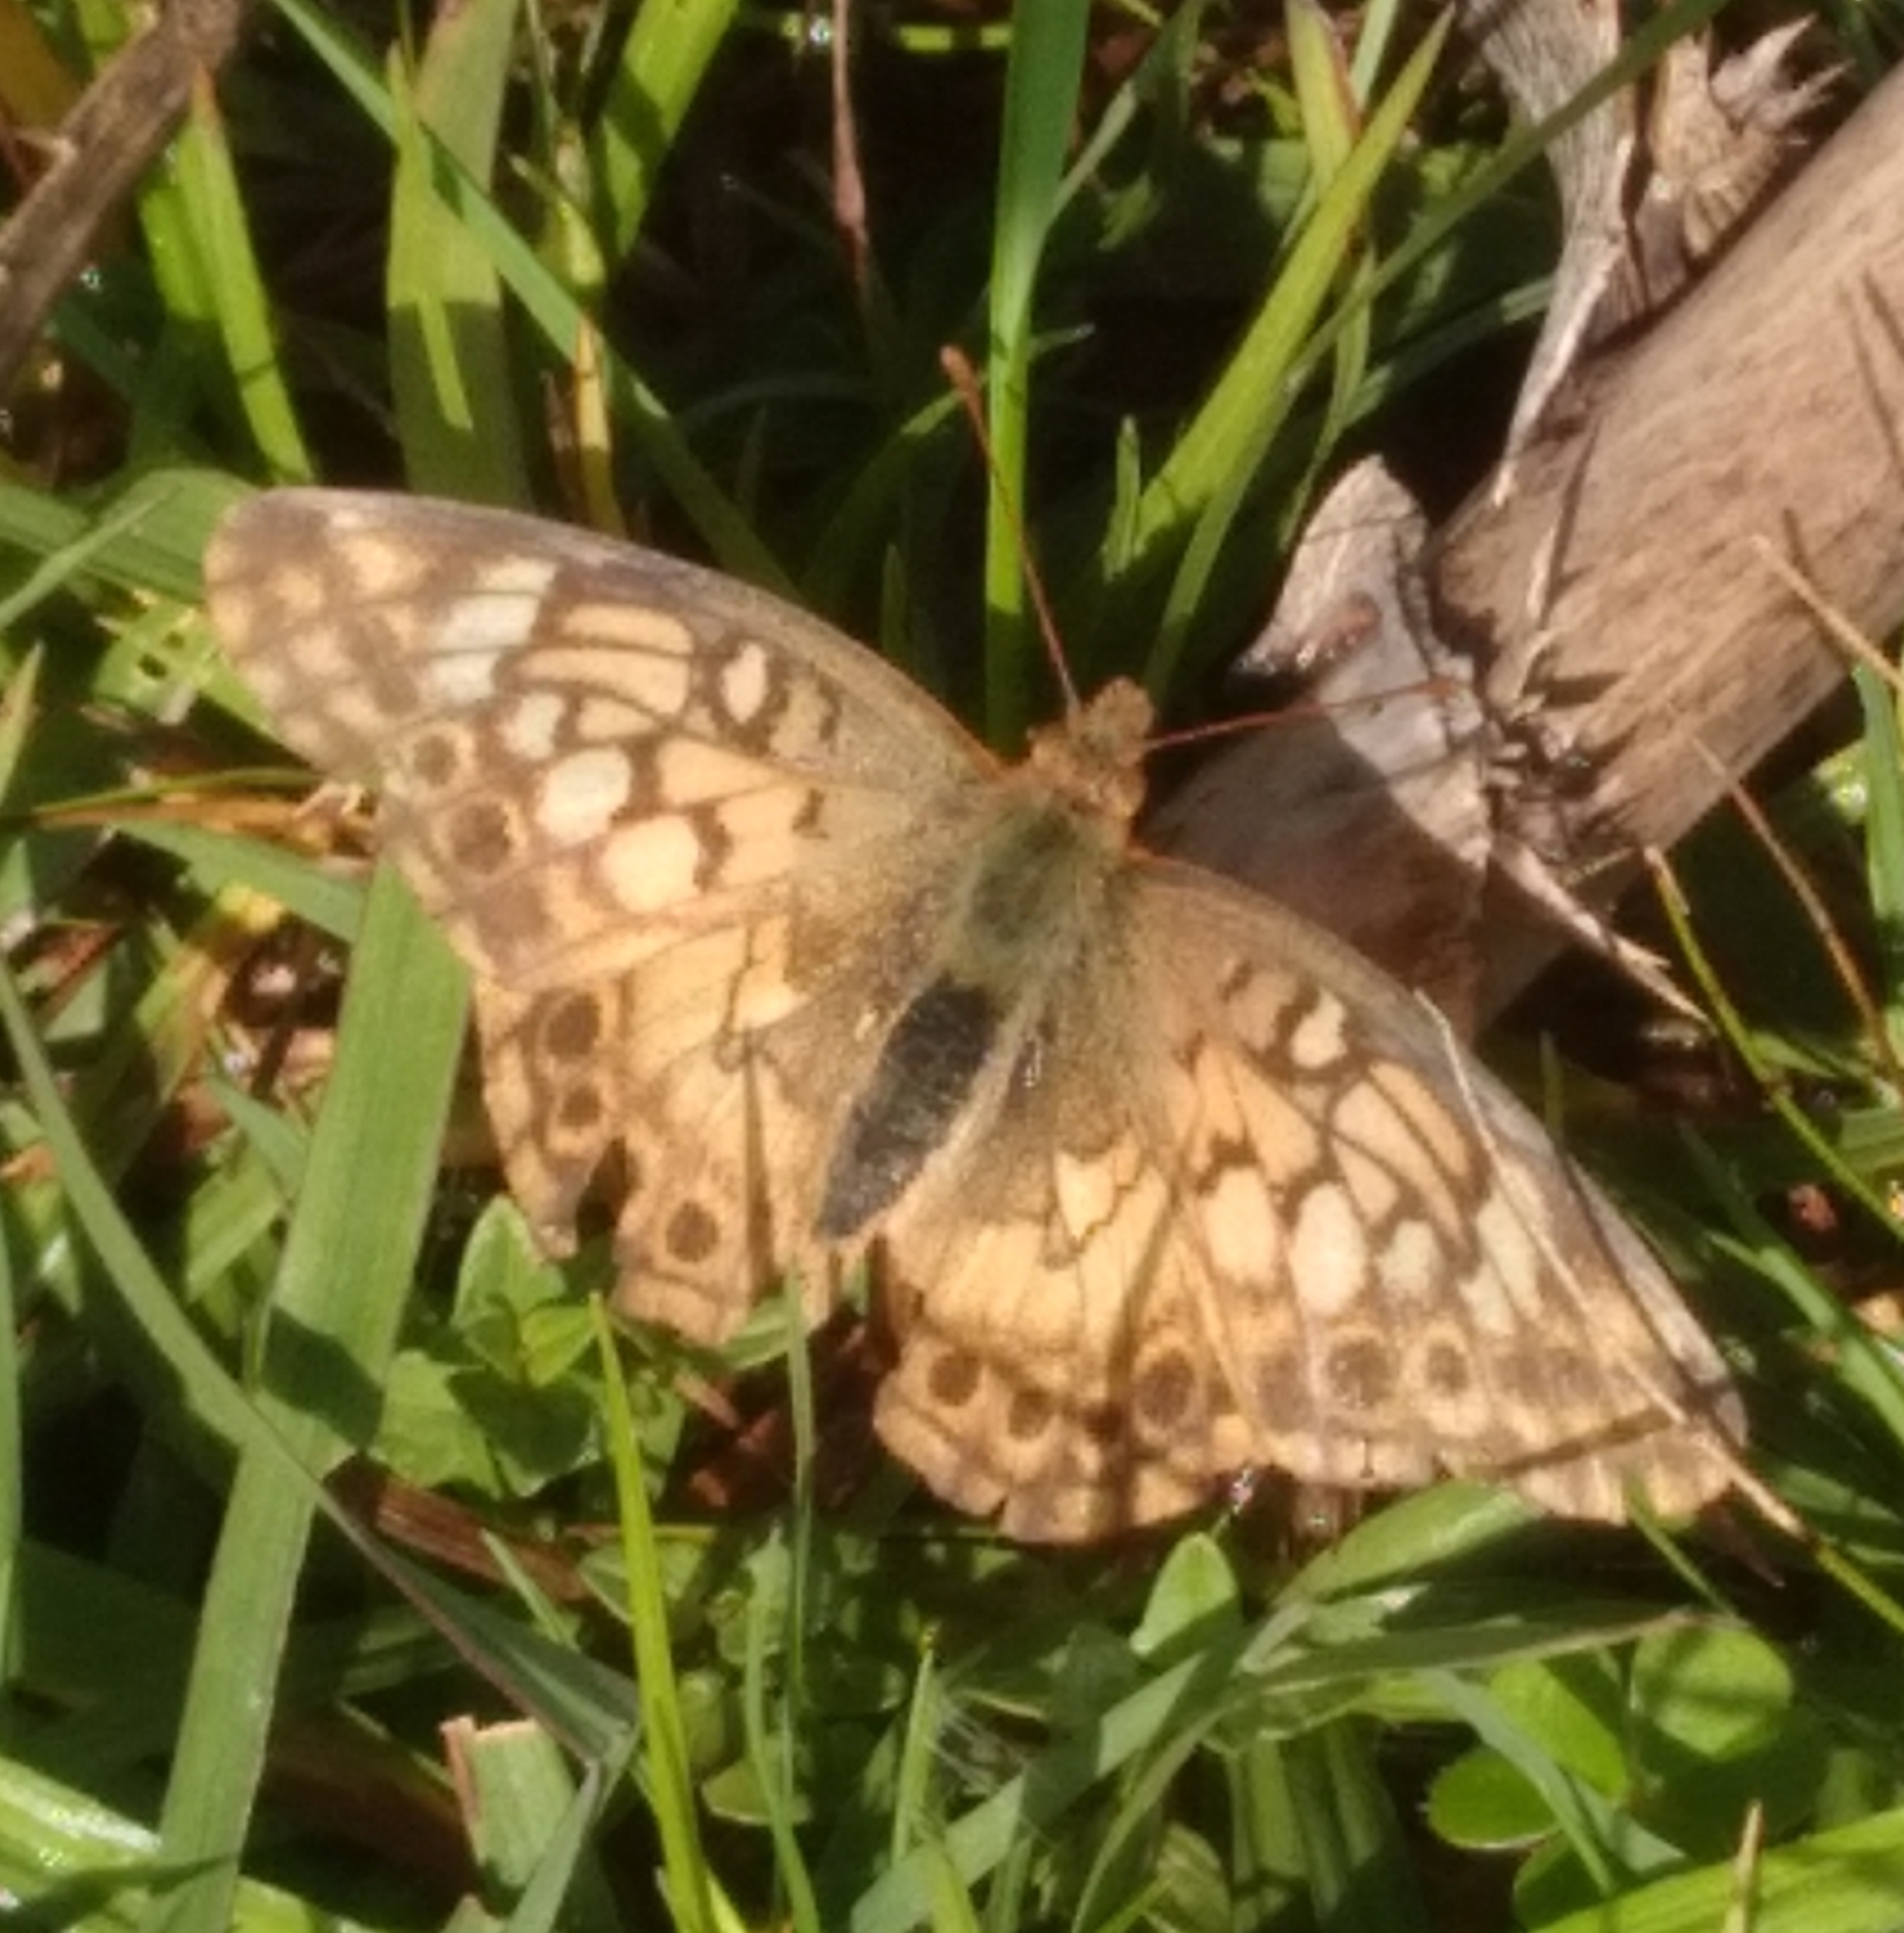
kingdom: Animalia
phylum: Arthropoda
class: Insecta
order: Lepidoptera
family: Nymphalidae
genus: Euptoieta
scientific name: Euptoieta hortensia
